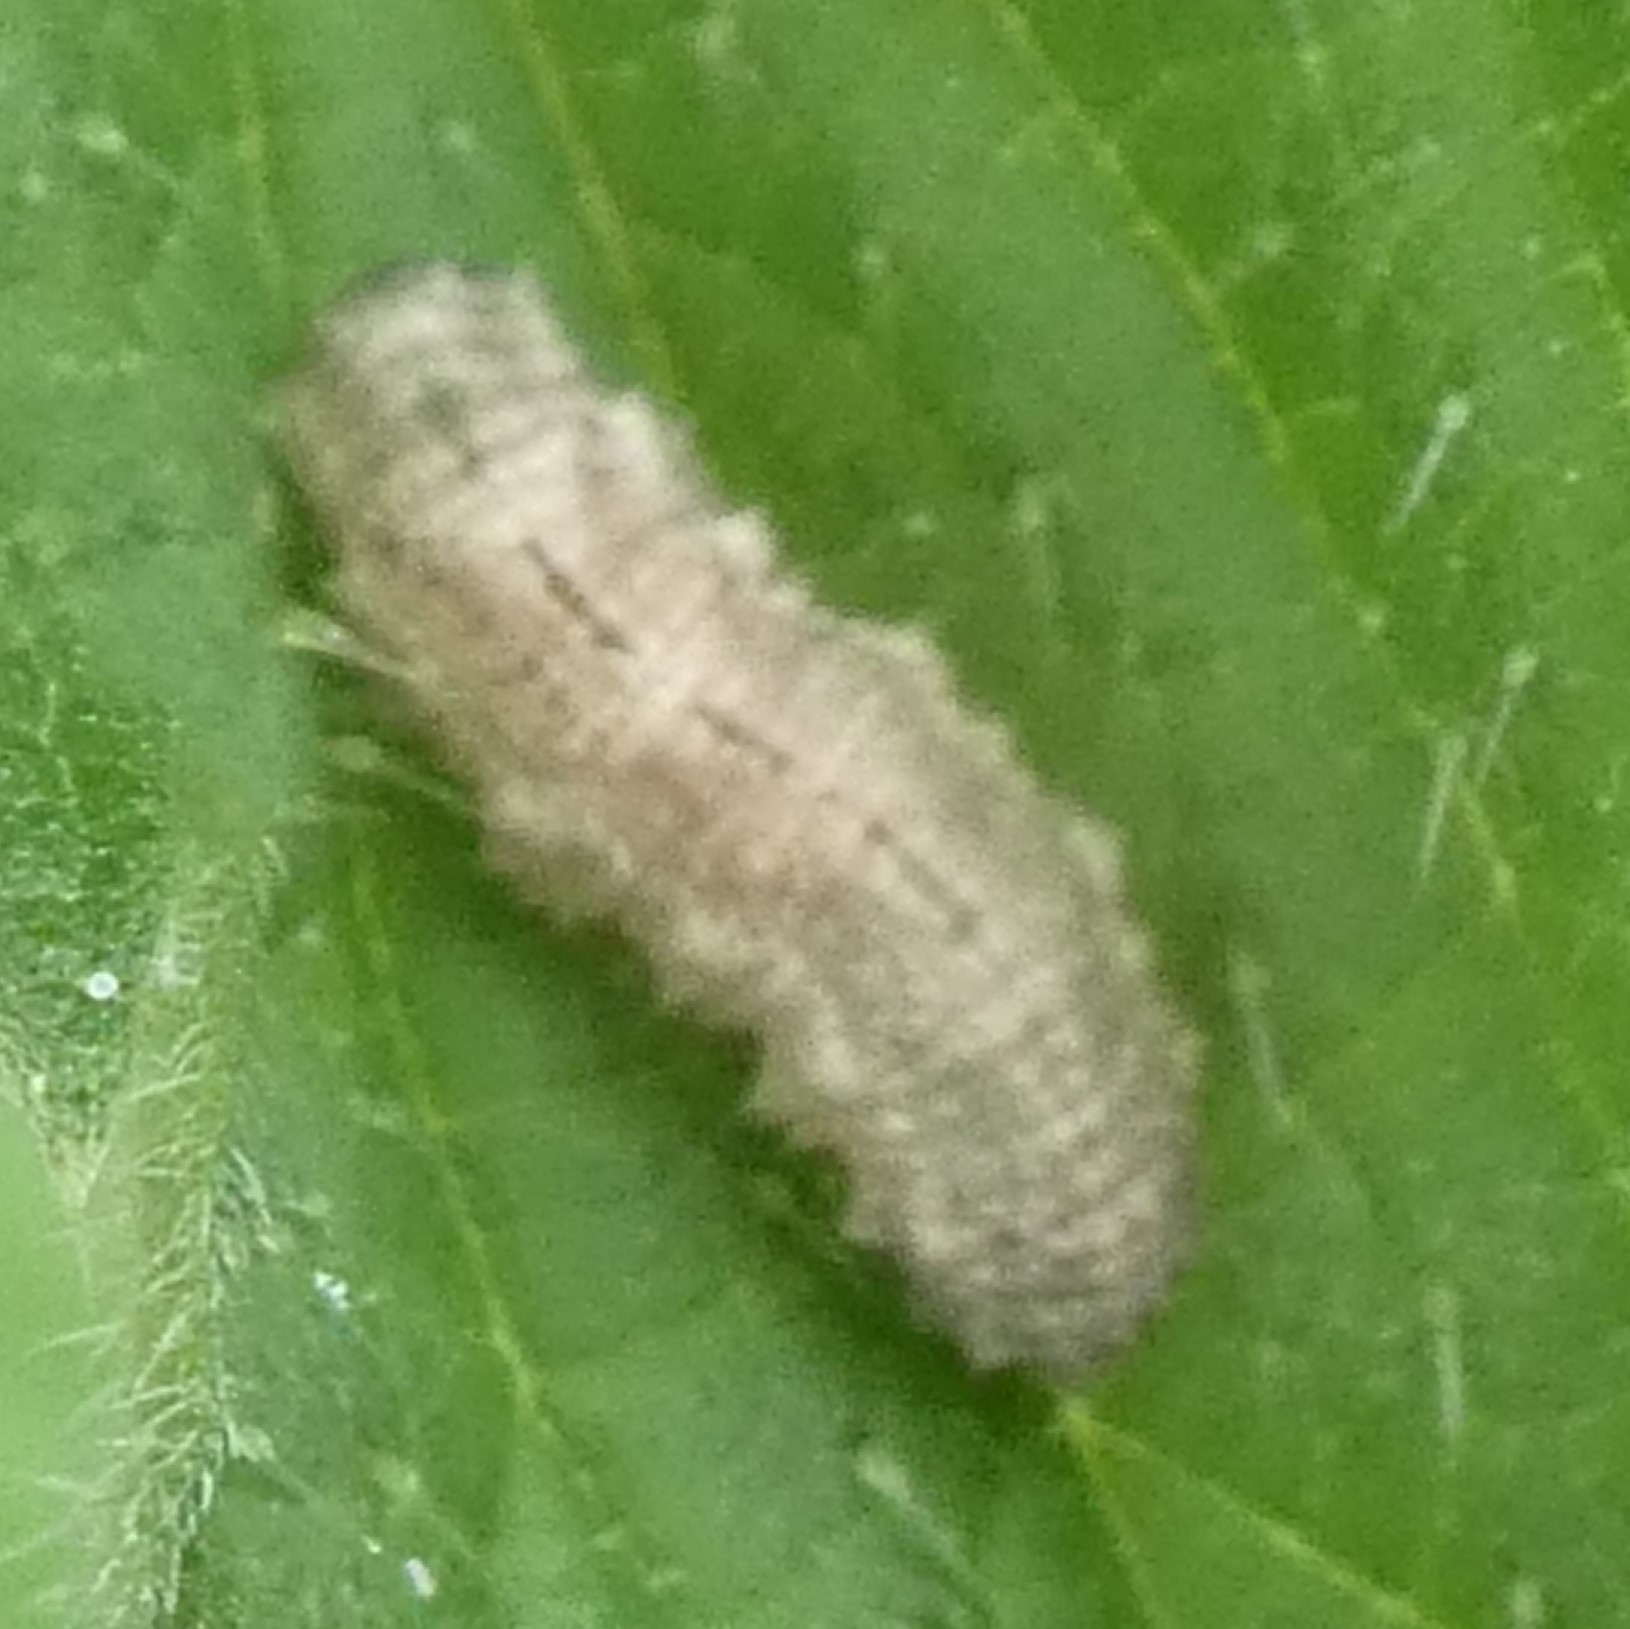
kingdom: Animalia
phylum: Arthropoda
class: Insecta
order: Diptera
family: Syrphidae
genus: Eupeodes
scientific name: Eupeodes
